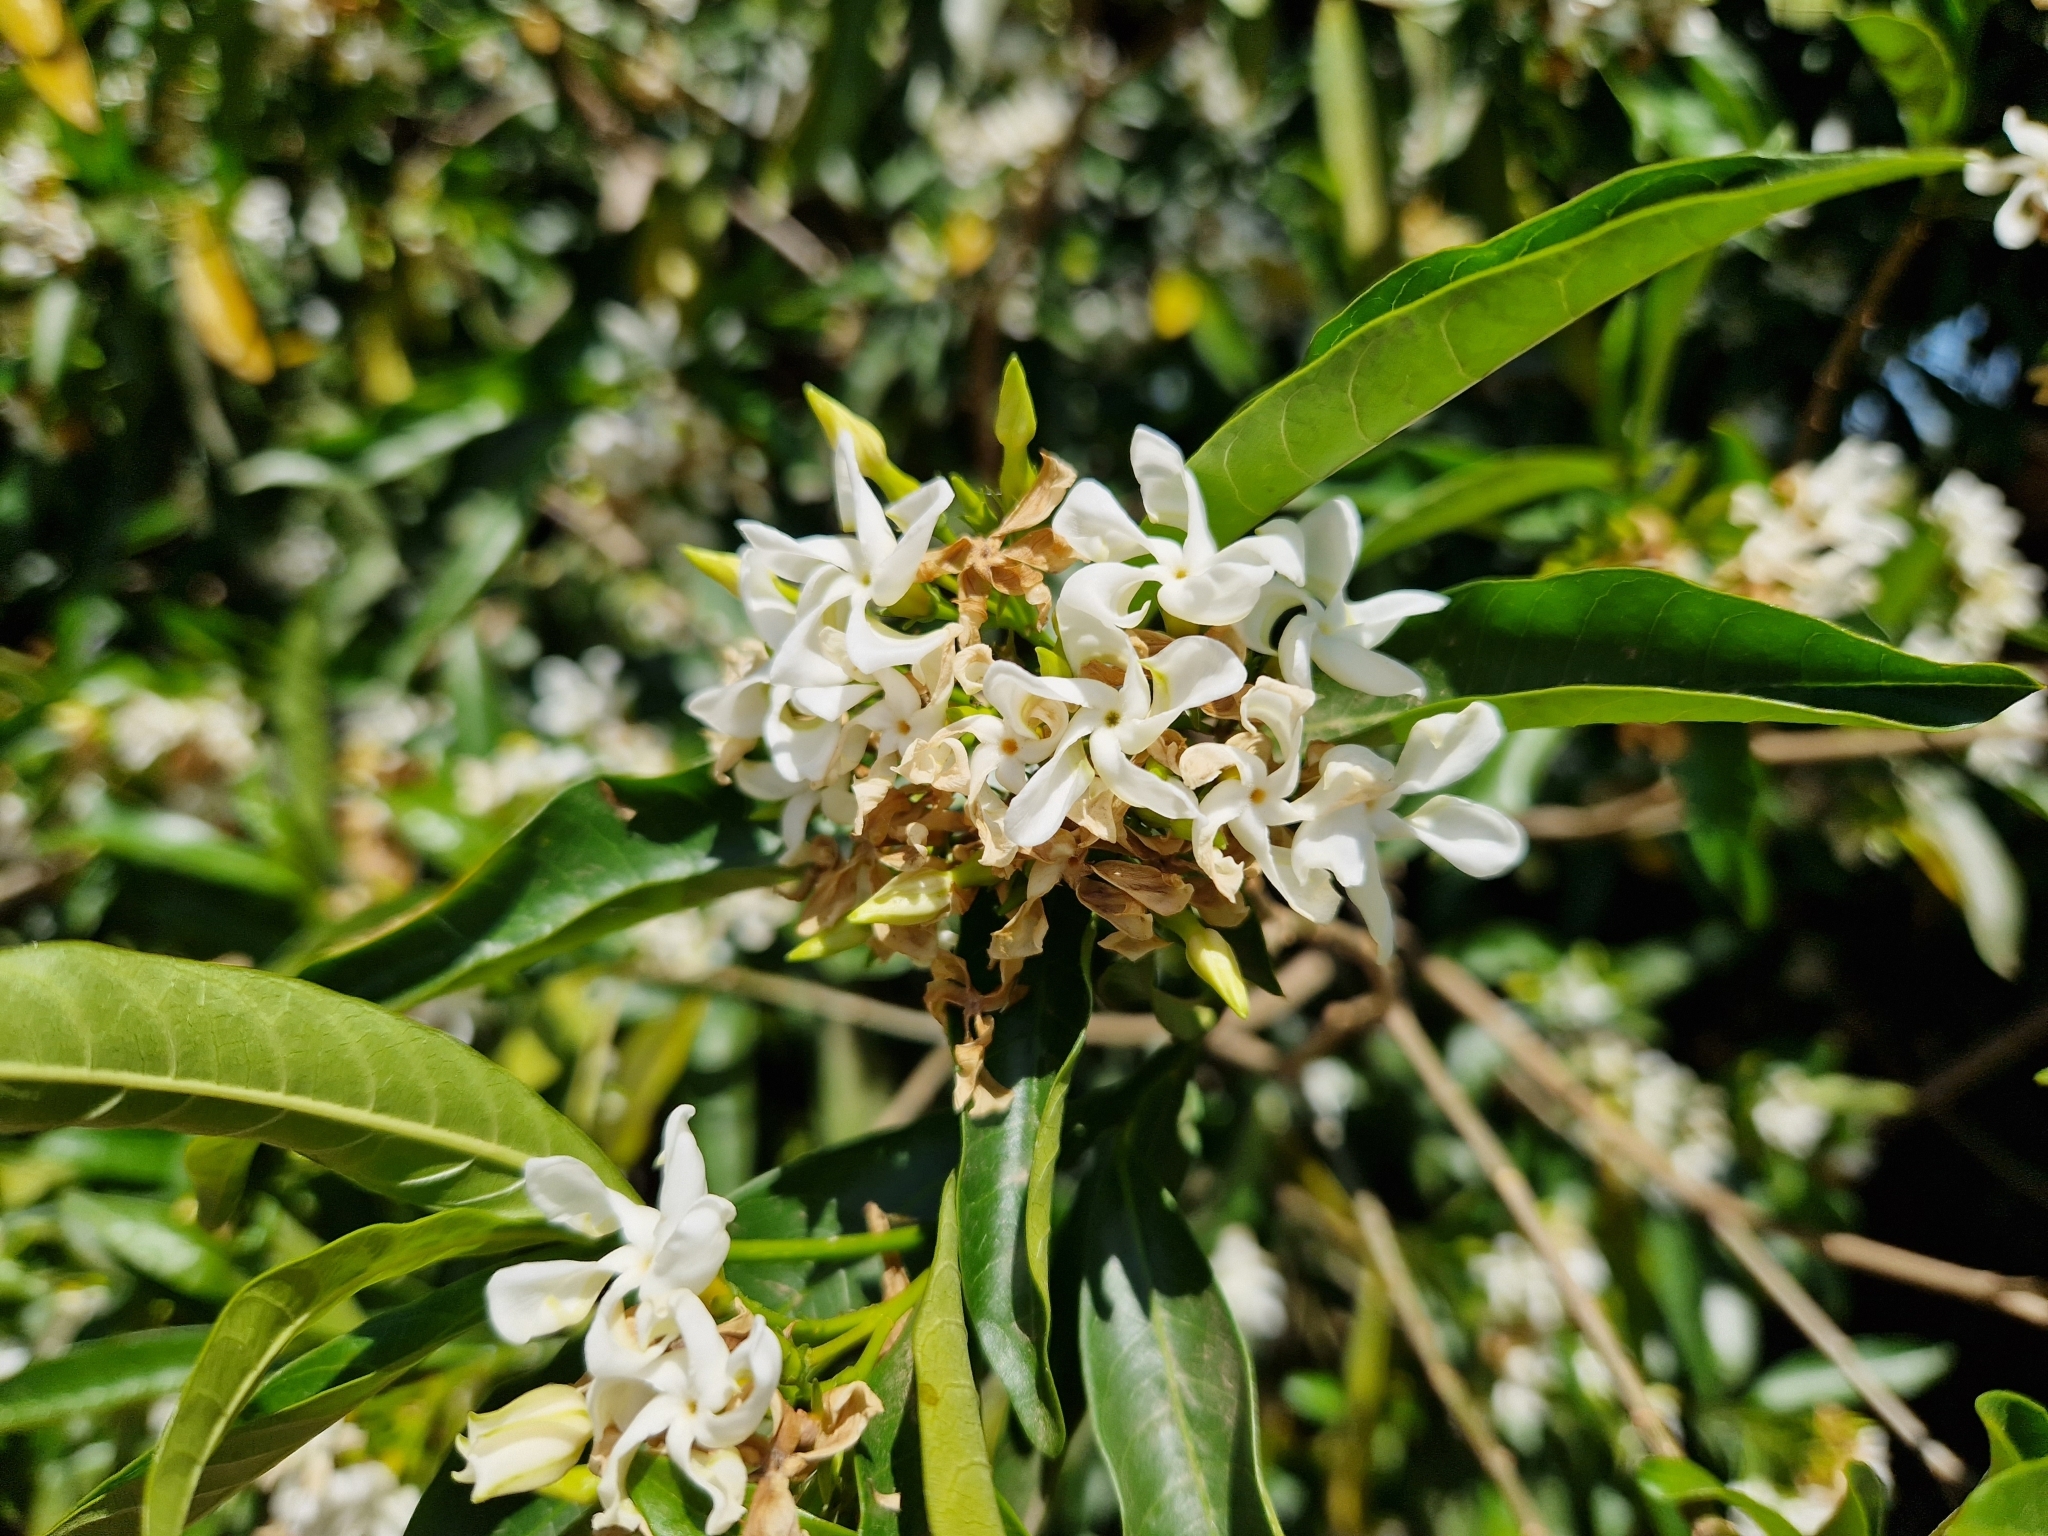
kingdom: Plantae
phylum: Tracheophyta
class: Magnoliopsida
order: Gentianales
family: Apocynaceae
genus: Tabernaemontana
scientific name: Tabernaemontana catharinensis
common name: Pinwheel-flower
